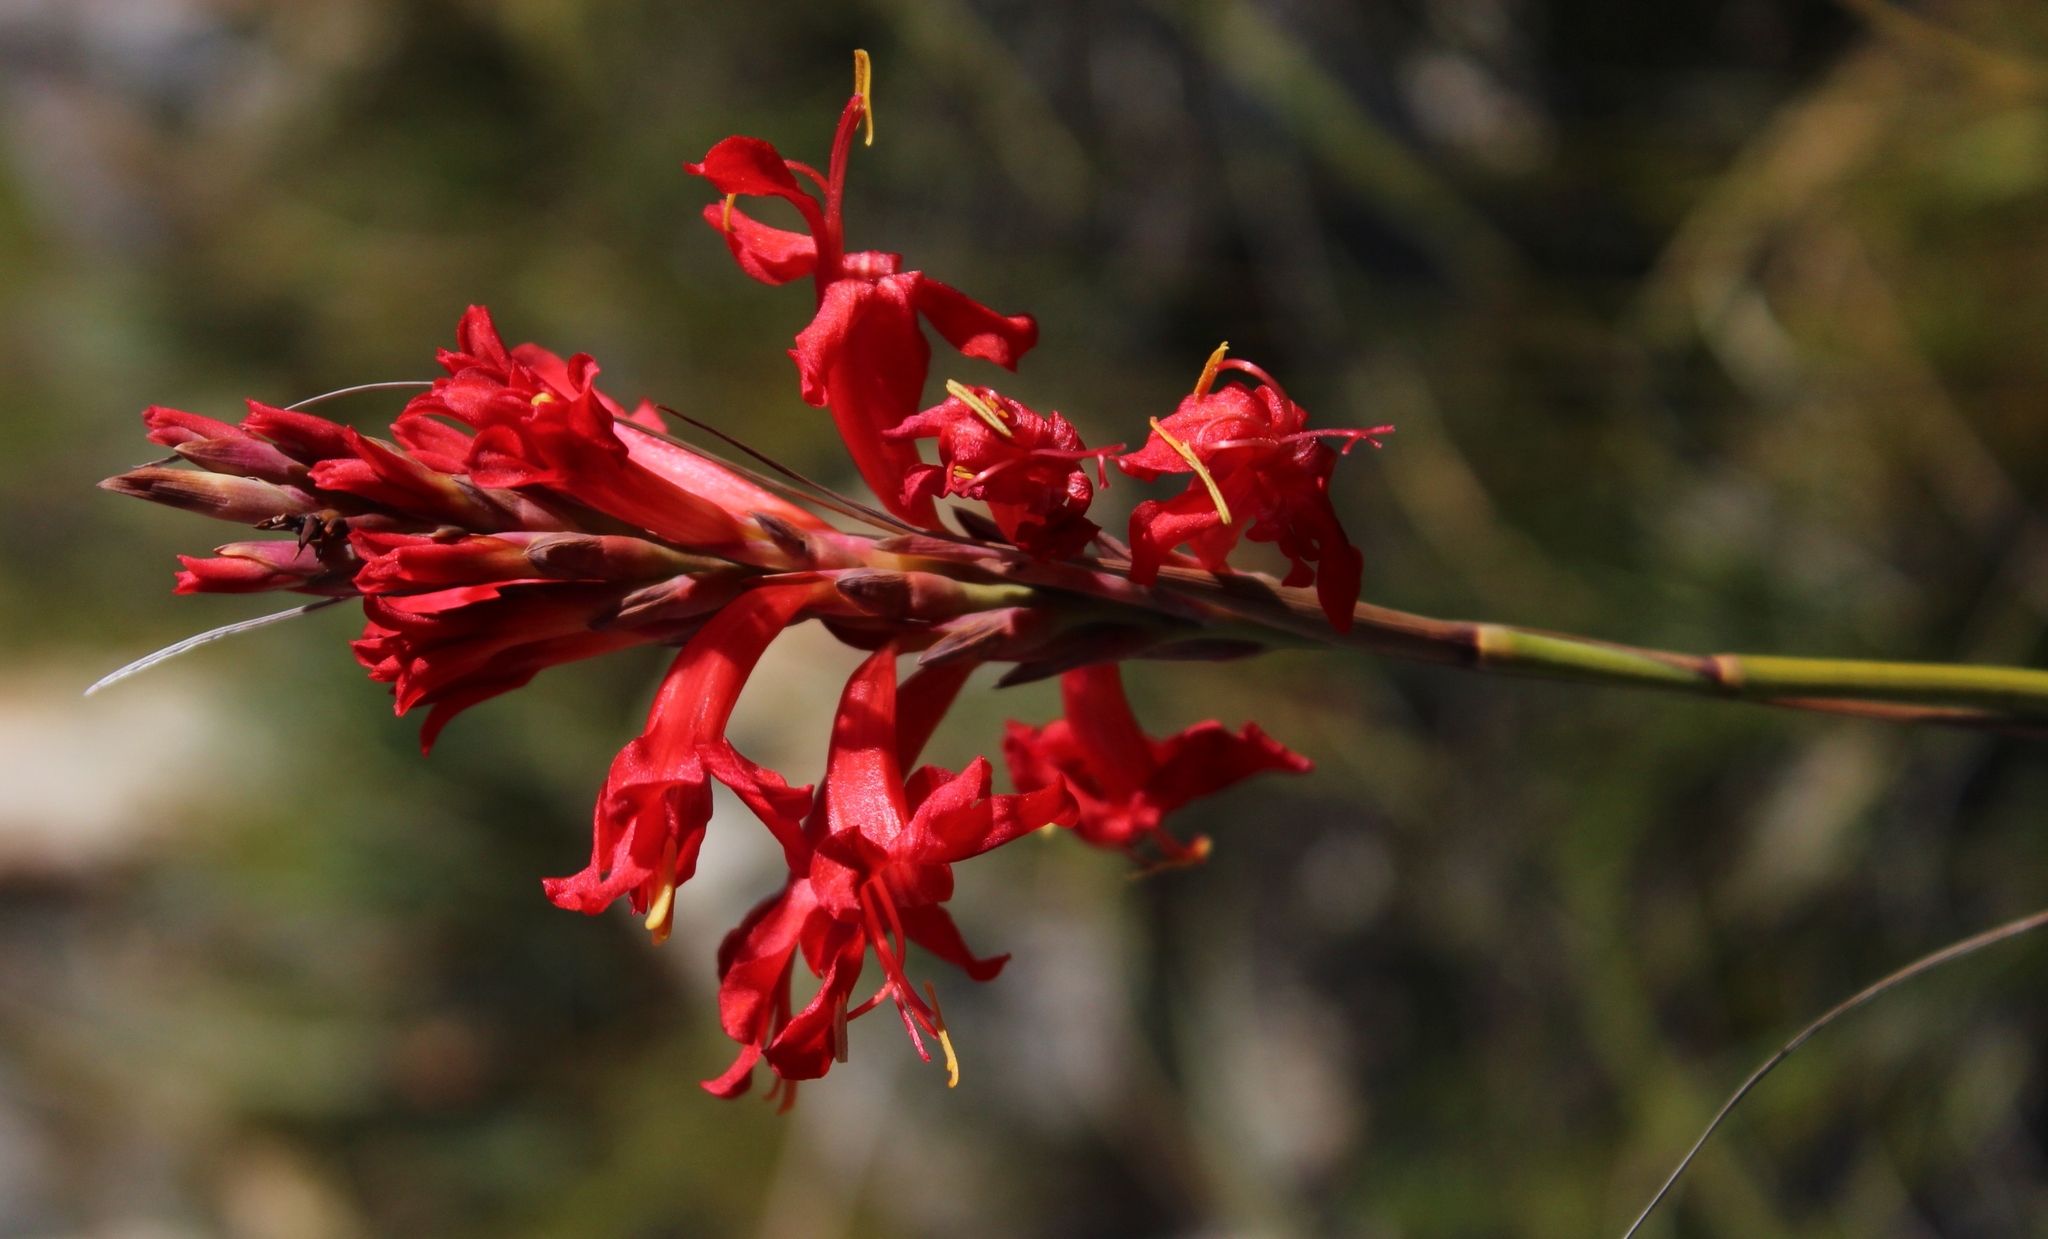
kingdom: Plantae
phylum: Tracheophyta
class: Liliopsida
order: Asparagales
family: Iridaceae
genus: Tritoniopsis
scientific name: Tritoniopsis triticea
